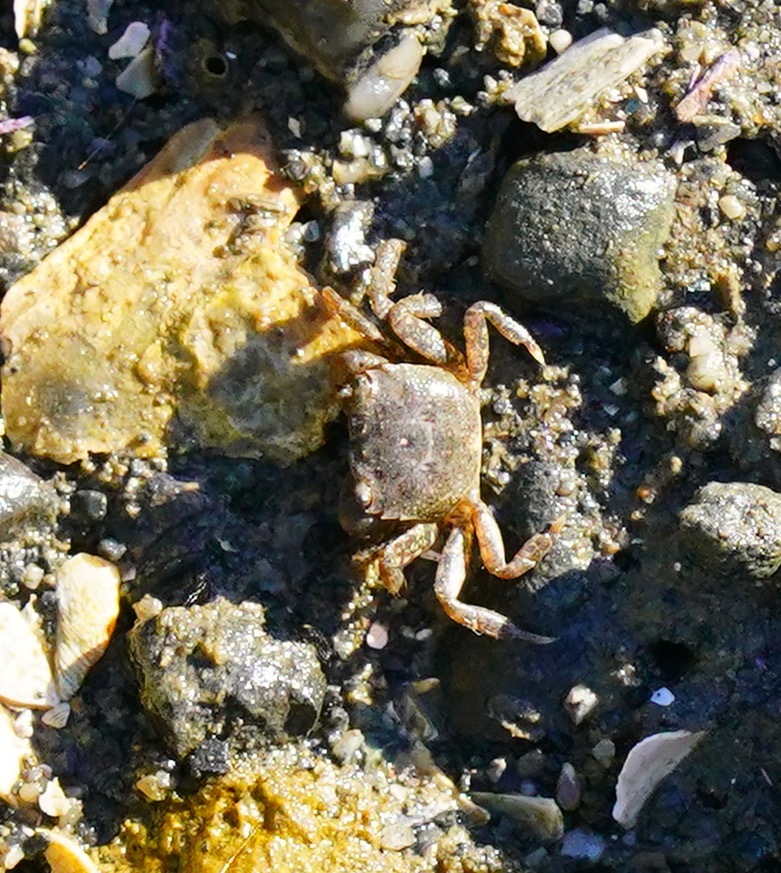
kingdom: Animalia
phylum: Arthropoda
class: Malacostraca
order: Decapoda
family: Varunidae
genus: Hemigrapsus
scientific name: Hemigrapsus oregonensis
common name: Yellow shore crab
